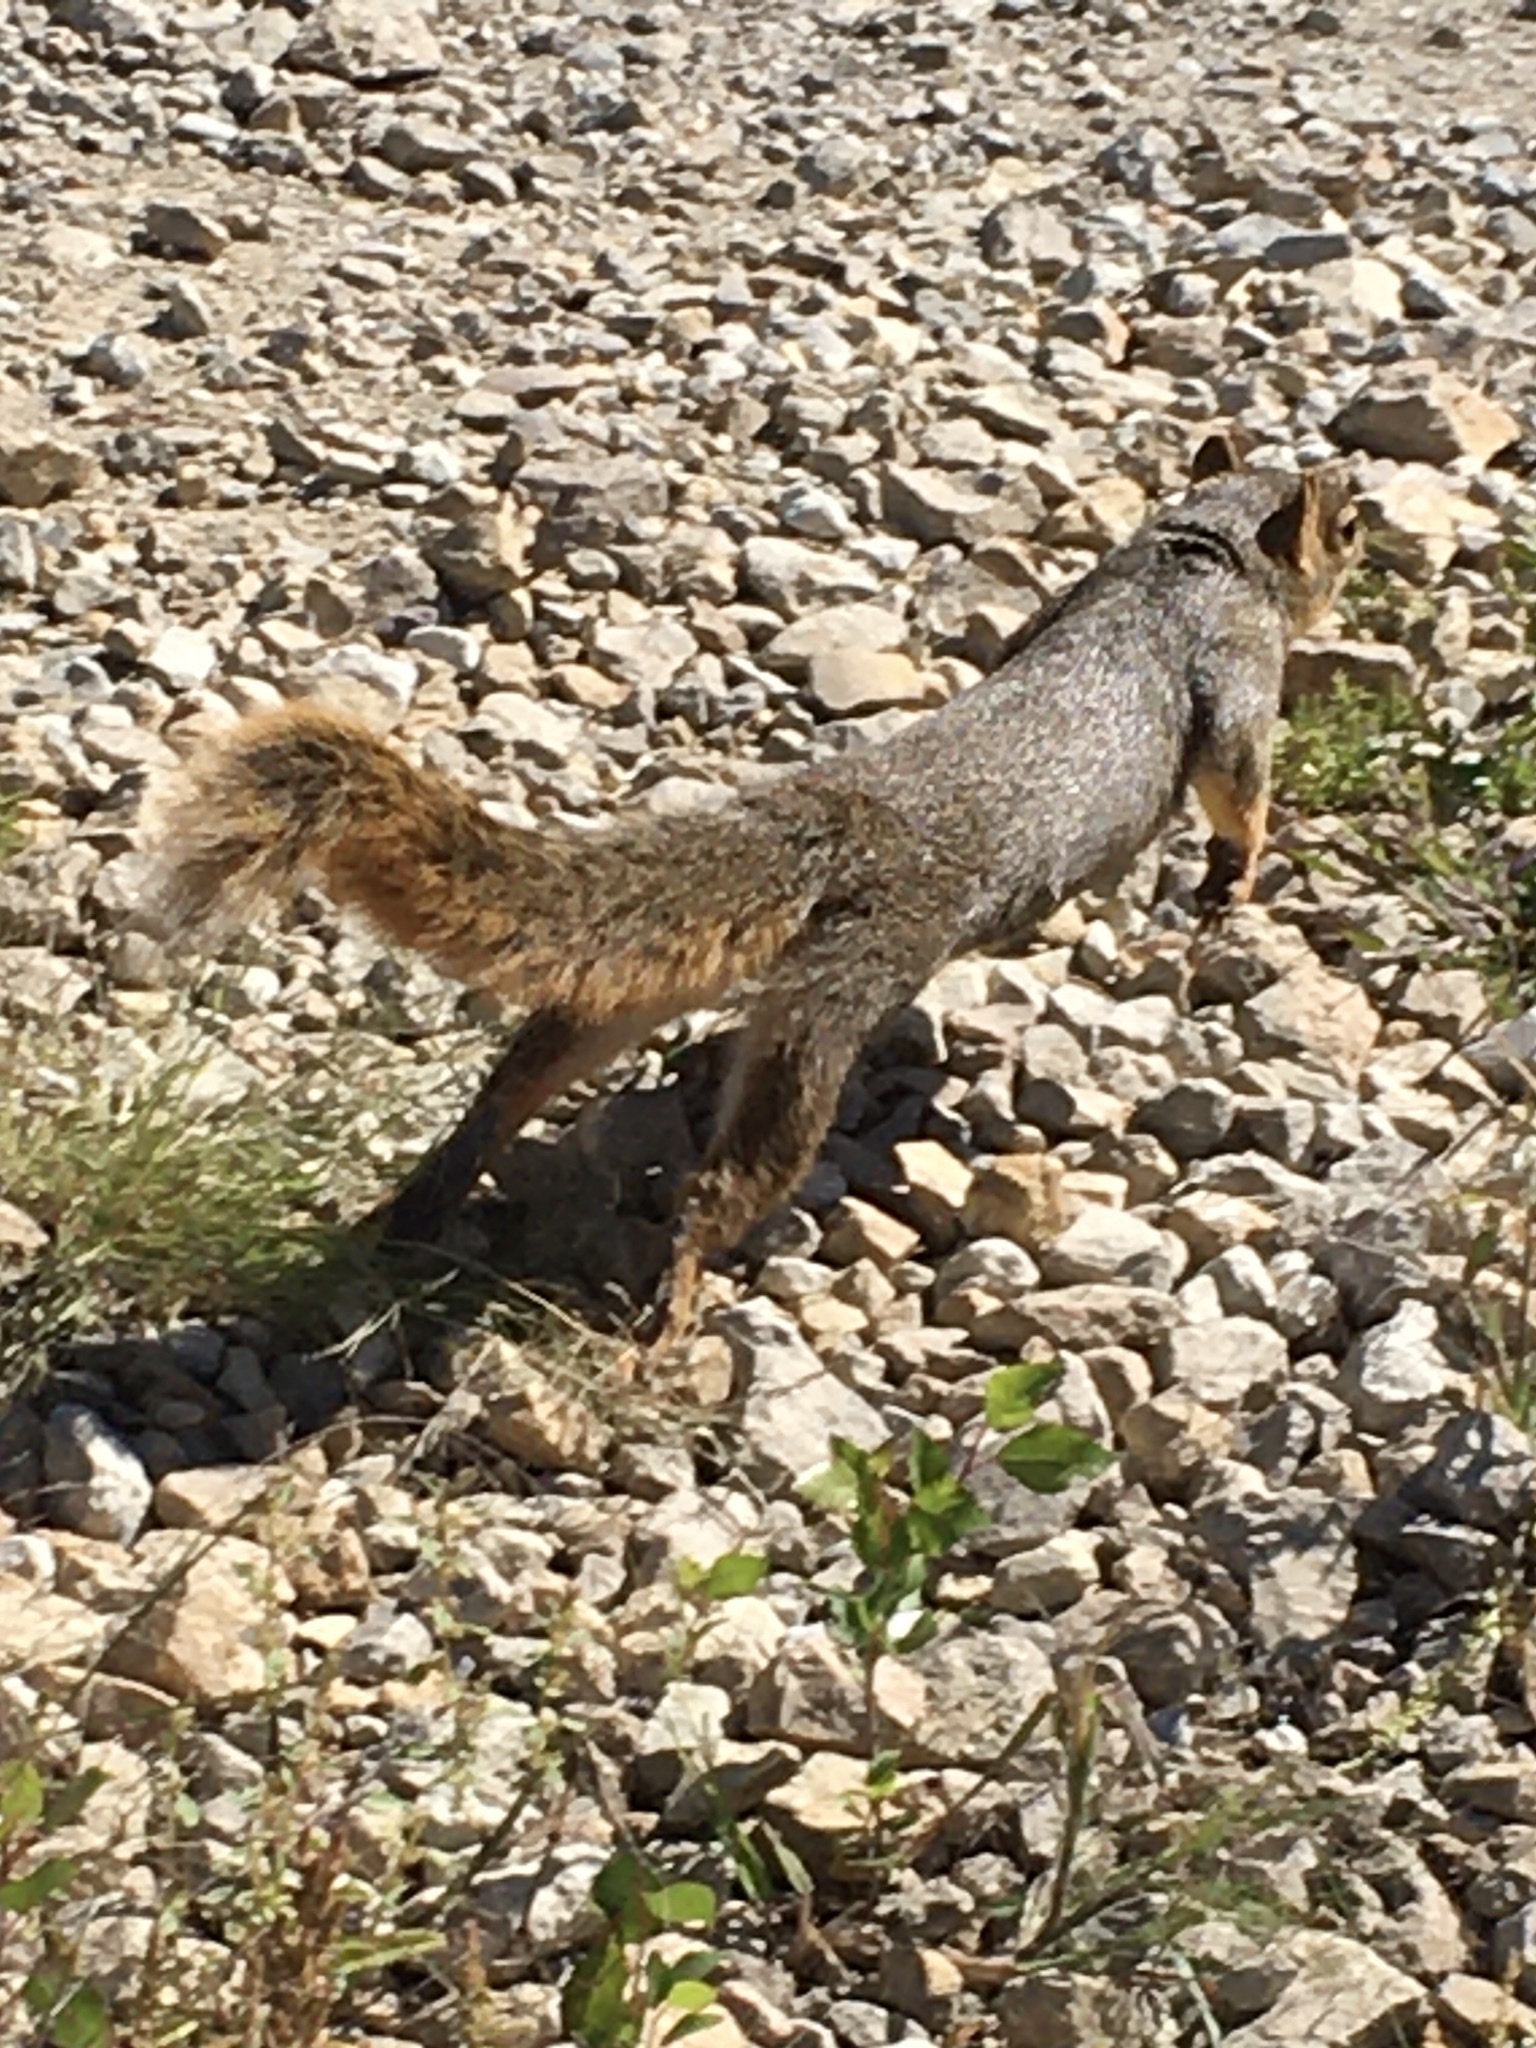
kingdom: Animalia
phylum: Chordata
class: Mammalia
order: Rodentia
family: Sciuridae
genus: Sciurus
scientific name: Sciurus niger
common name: Fox squirrel
